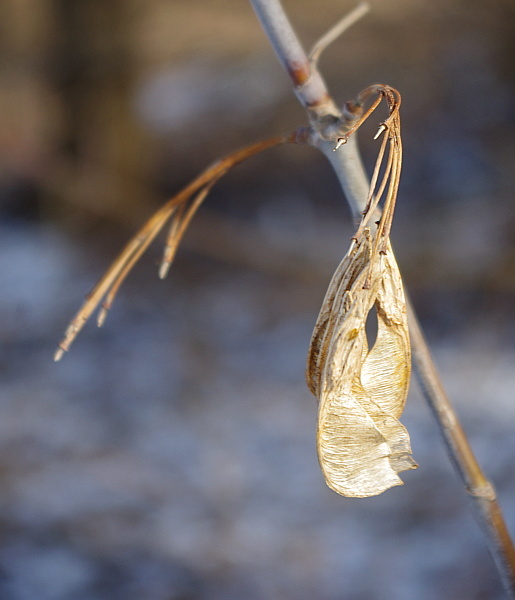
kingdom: Plantae
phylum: Tracheophyta
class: Magnoliopsida
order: Sapindales
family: Sapindaceae
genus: Acer
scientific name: Acer negundo
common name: Ashleaf maple
